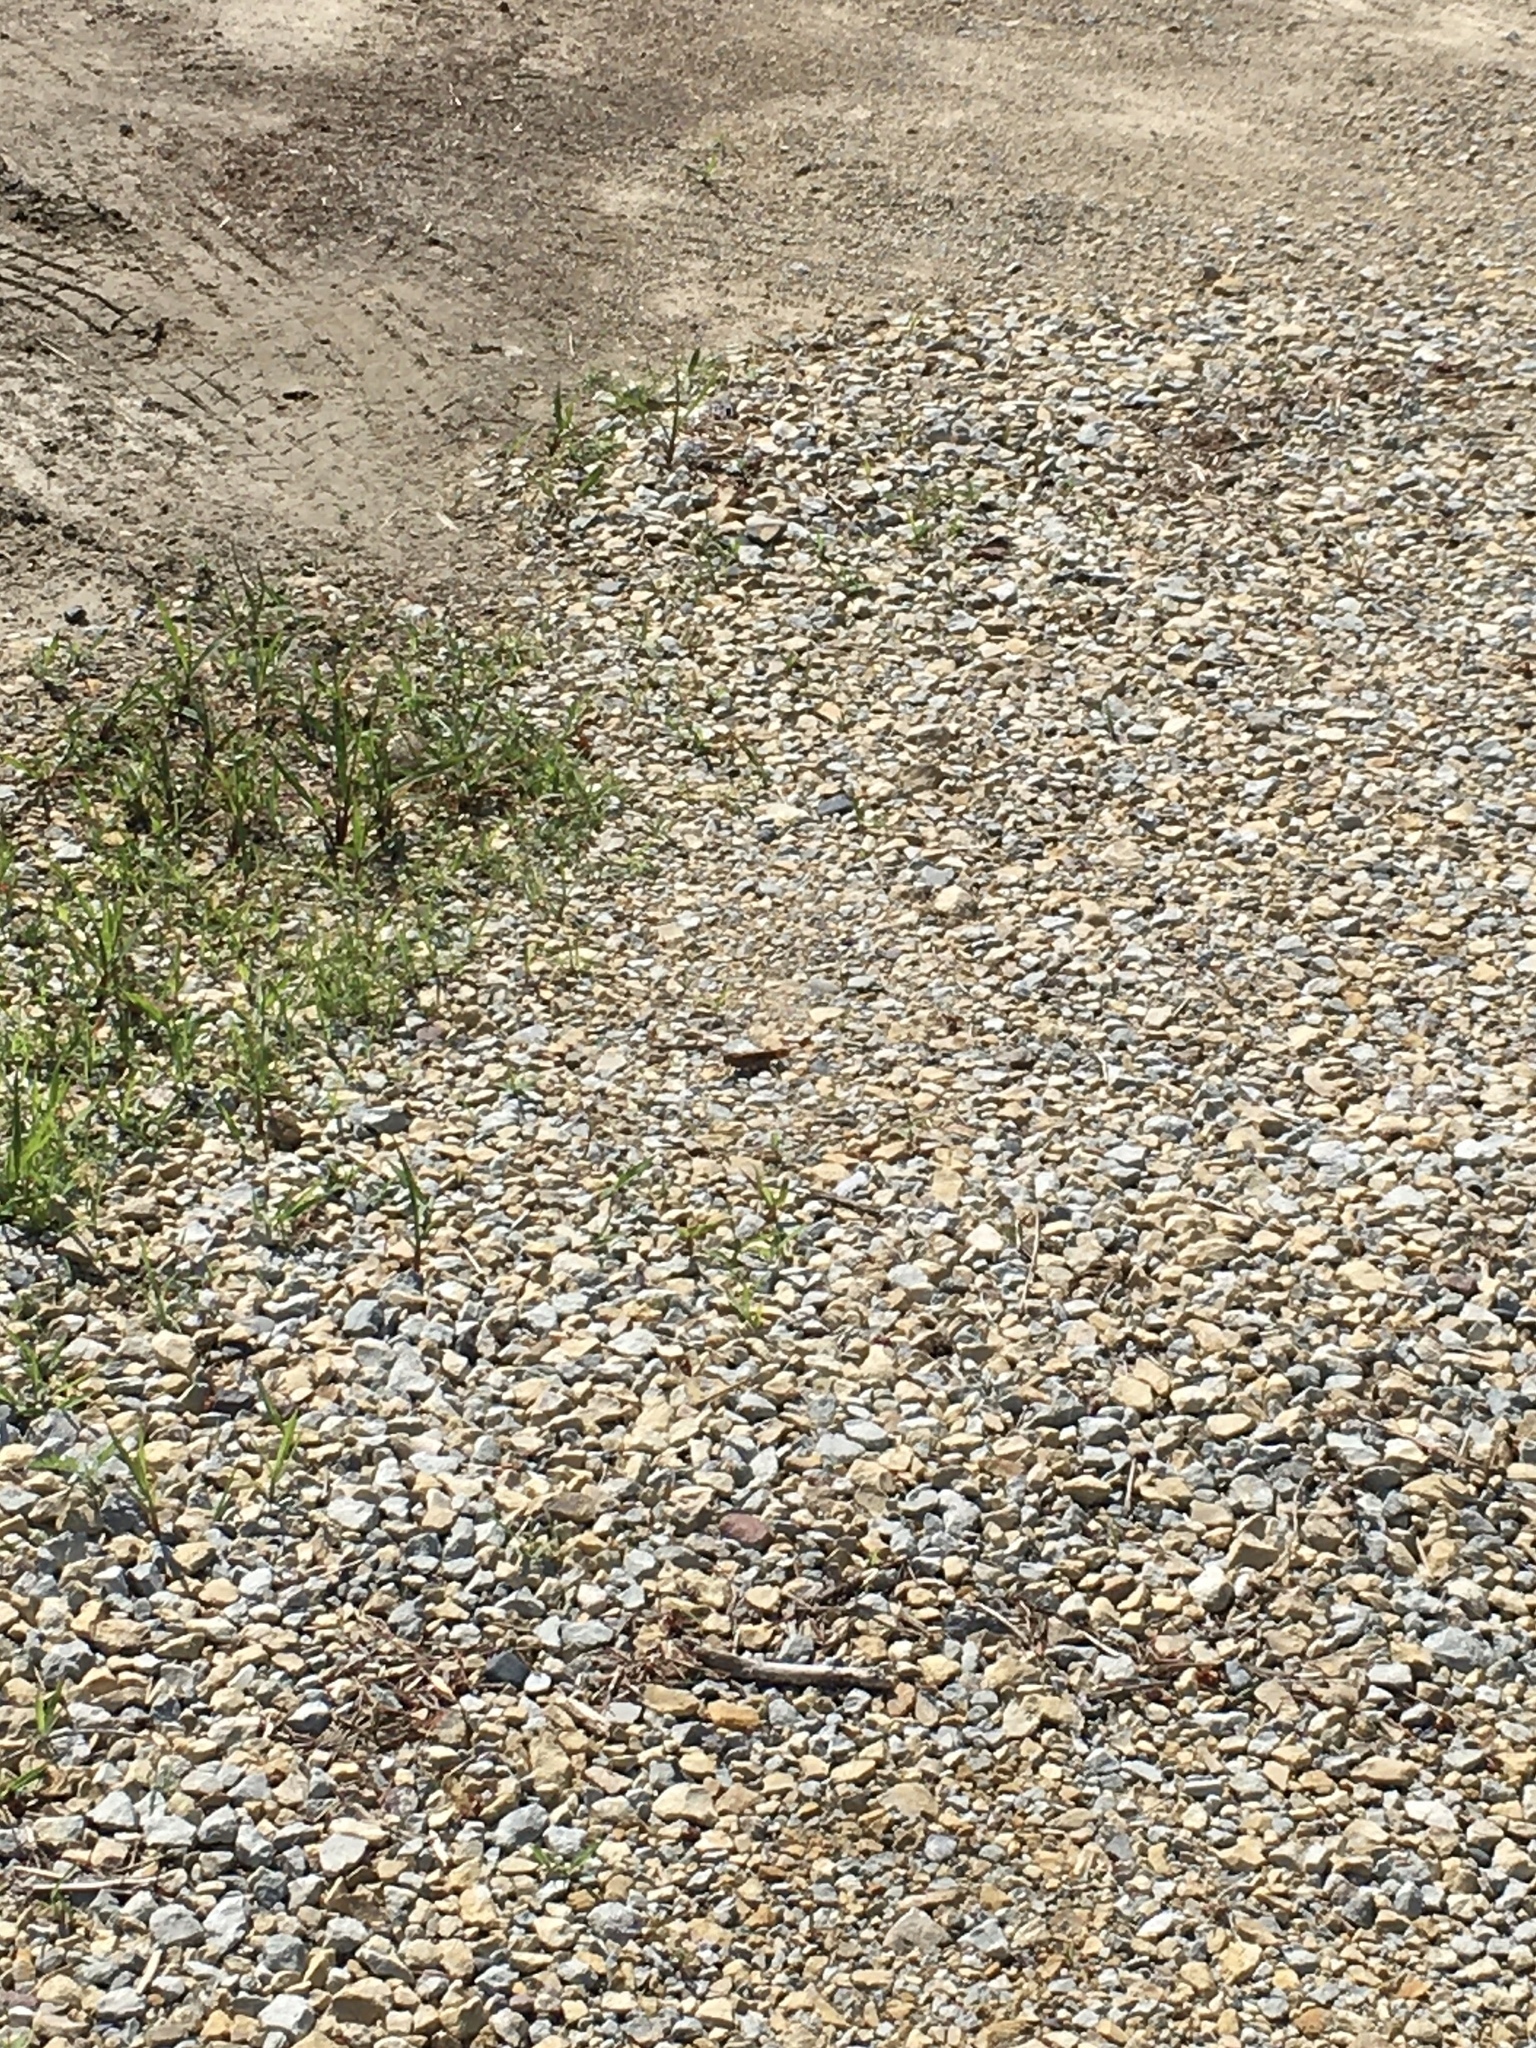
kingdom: Animalia
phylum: Arthropoda
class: Insecta
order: Orthoptera
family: Acrididae
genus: Dissosteira
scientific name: Dissosteira carolina
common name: Carolina grasshopper
